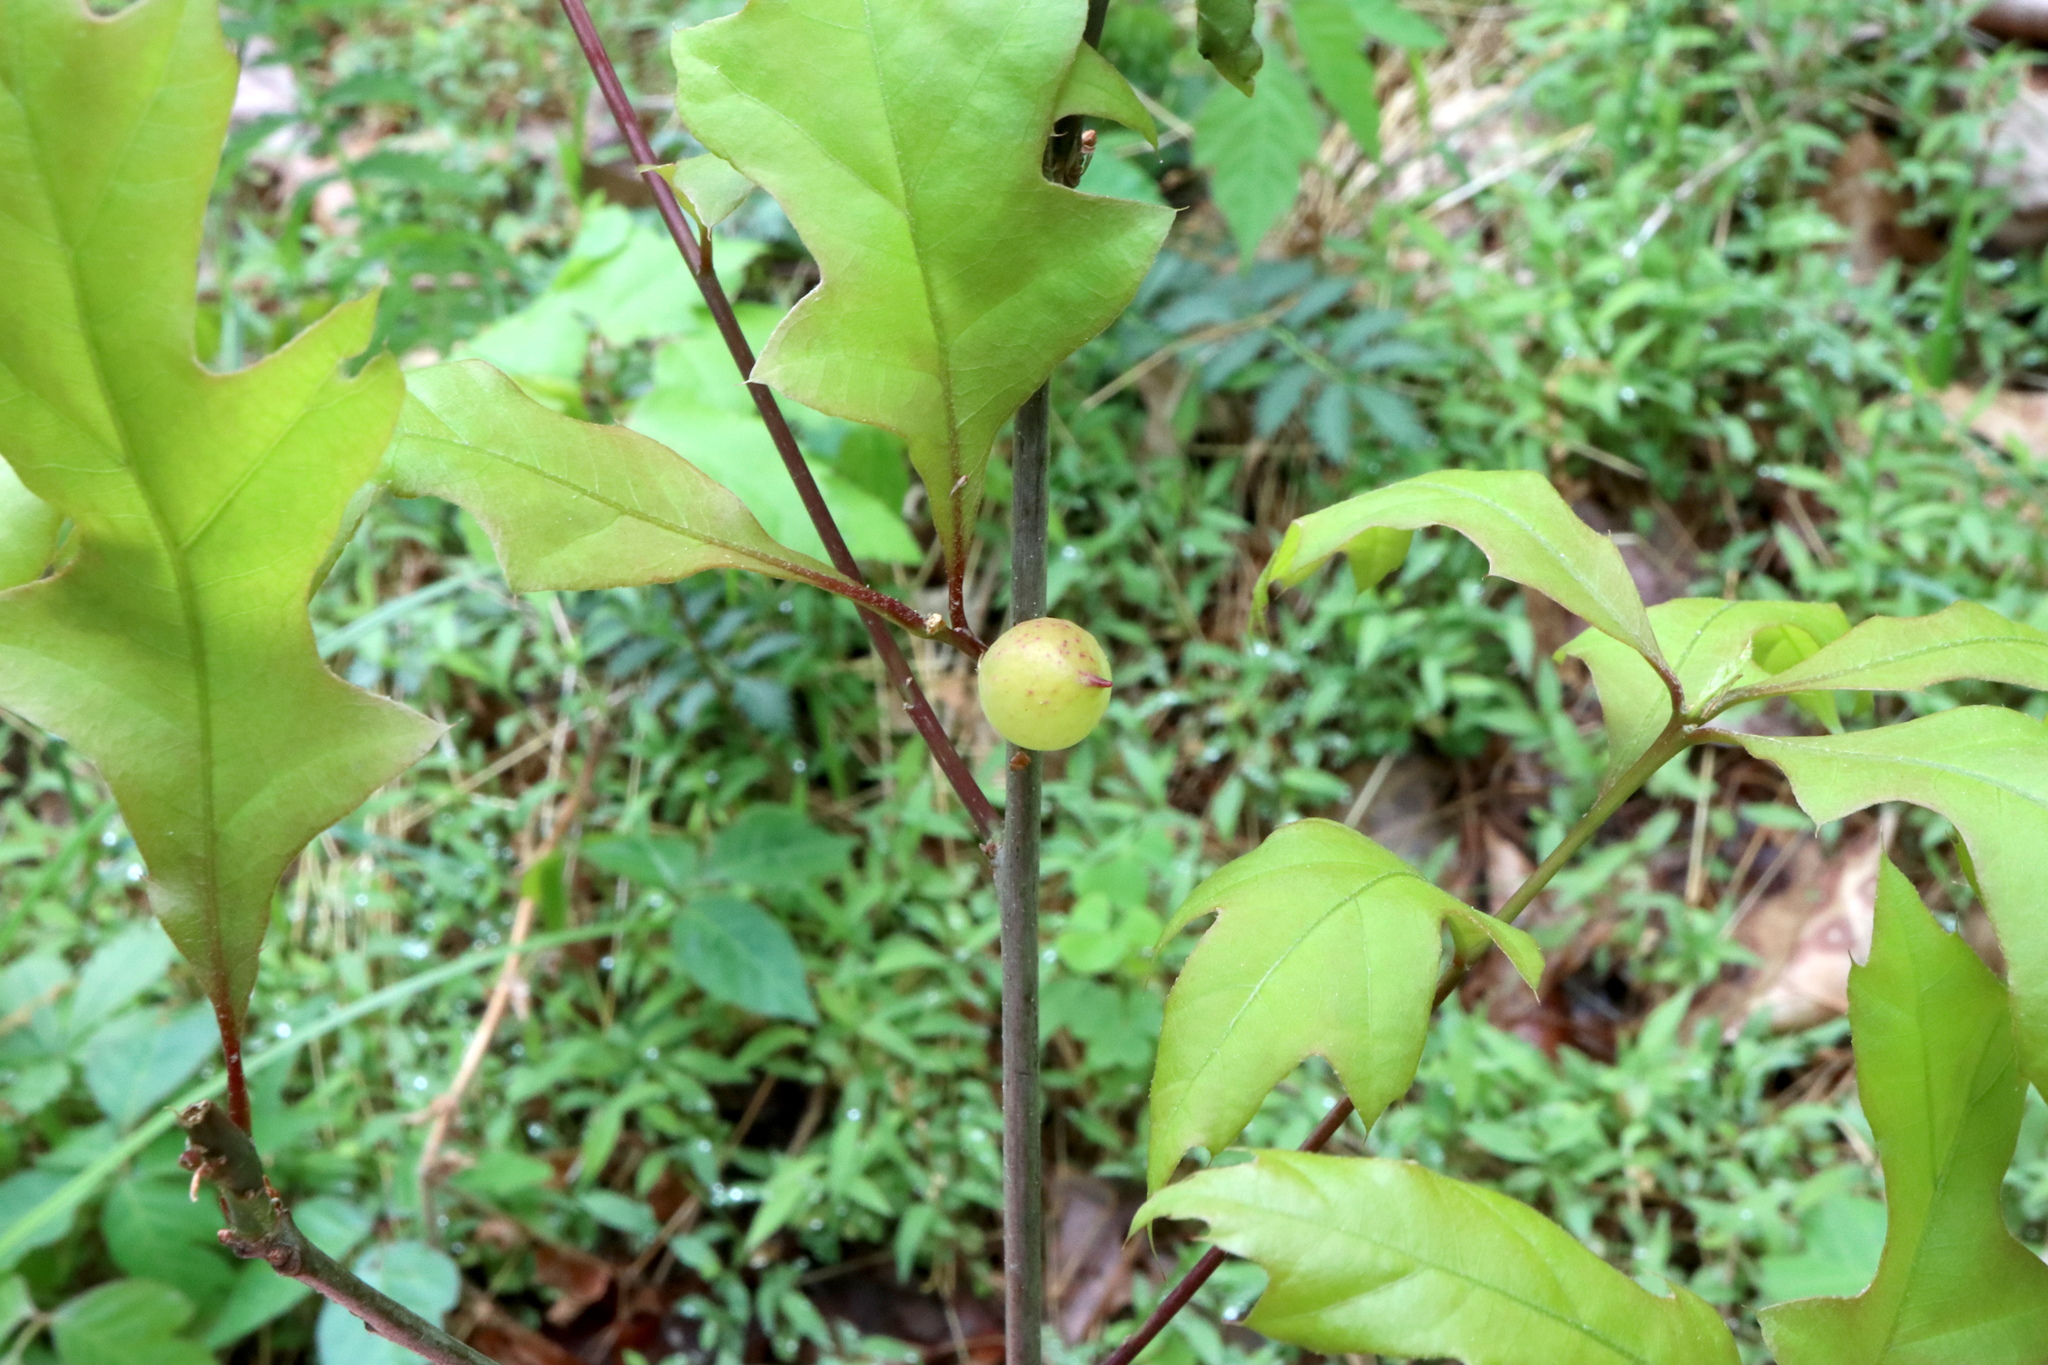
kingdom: Animalia
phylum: Arthropoda
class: Insecta
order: Hymenoptera
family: Cynipidae
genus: Amphibolips
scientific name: Amphibolips
